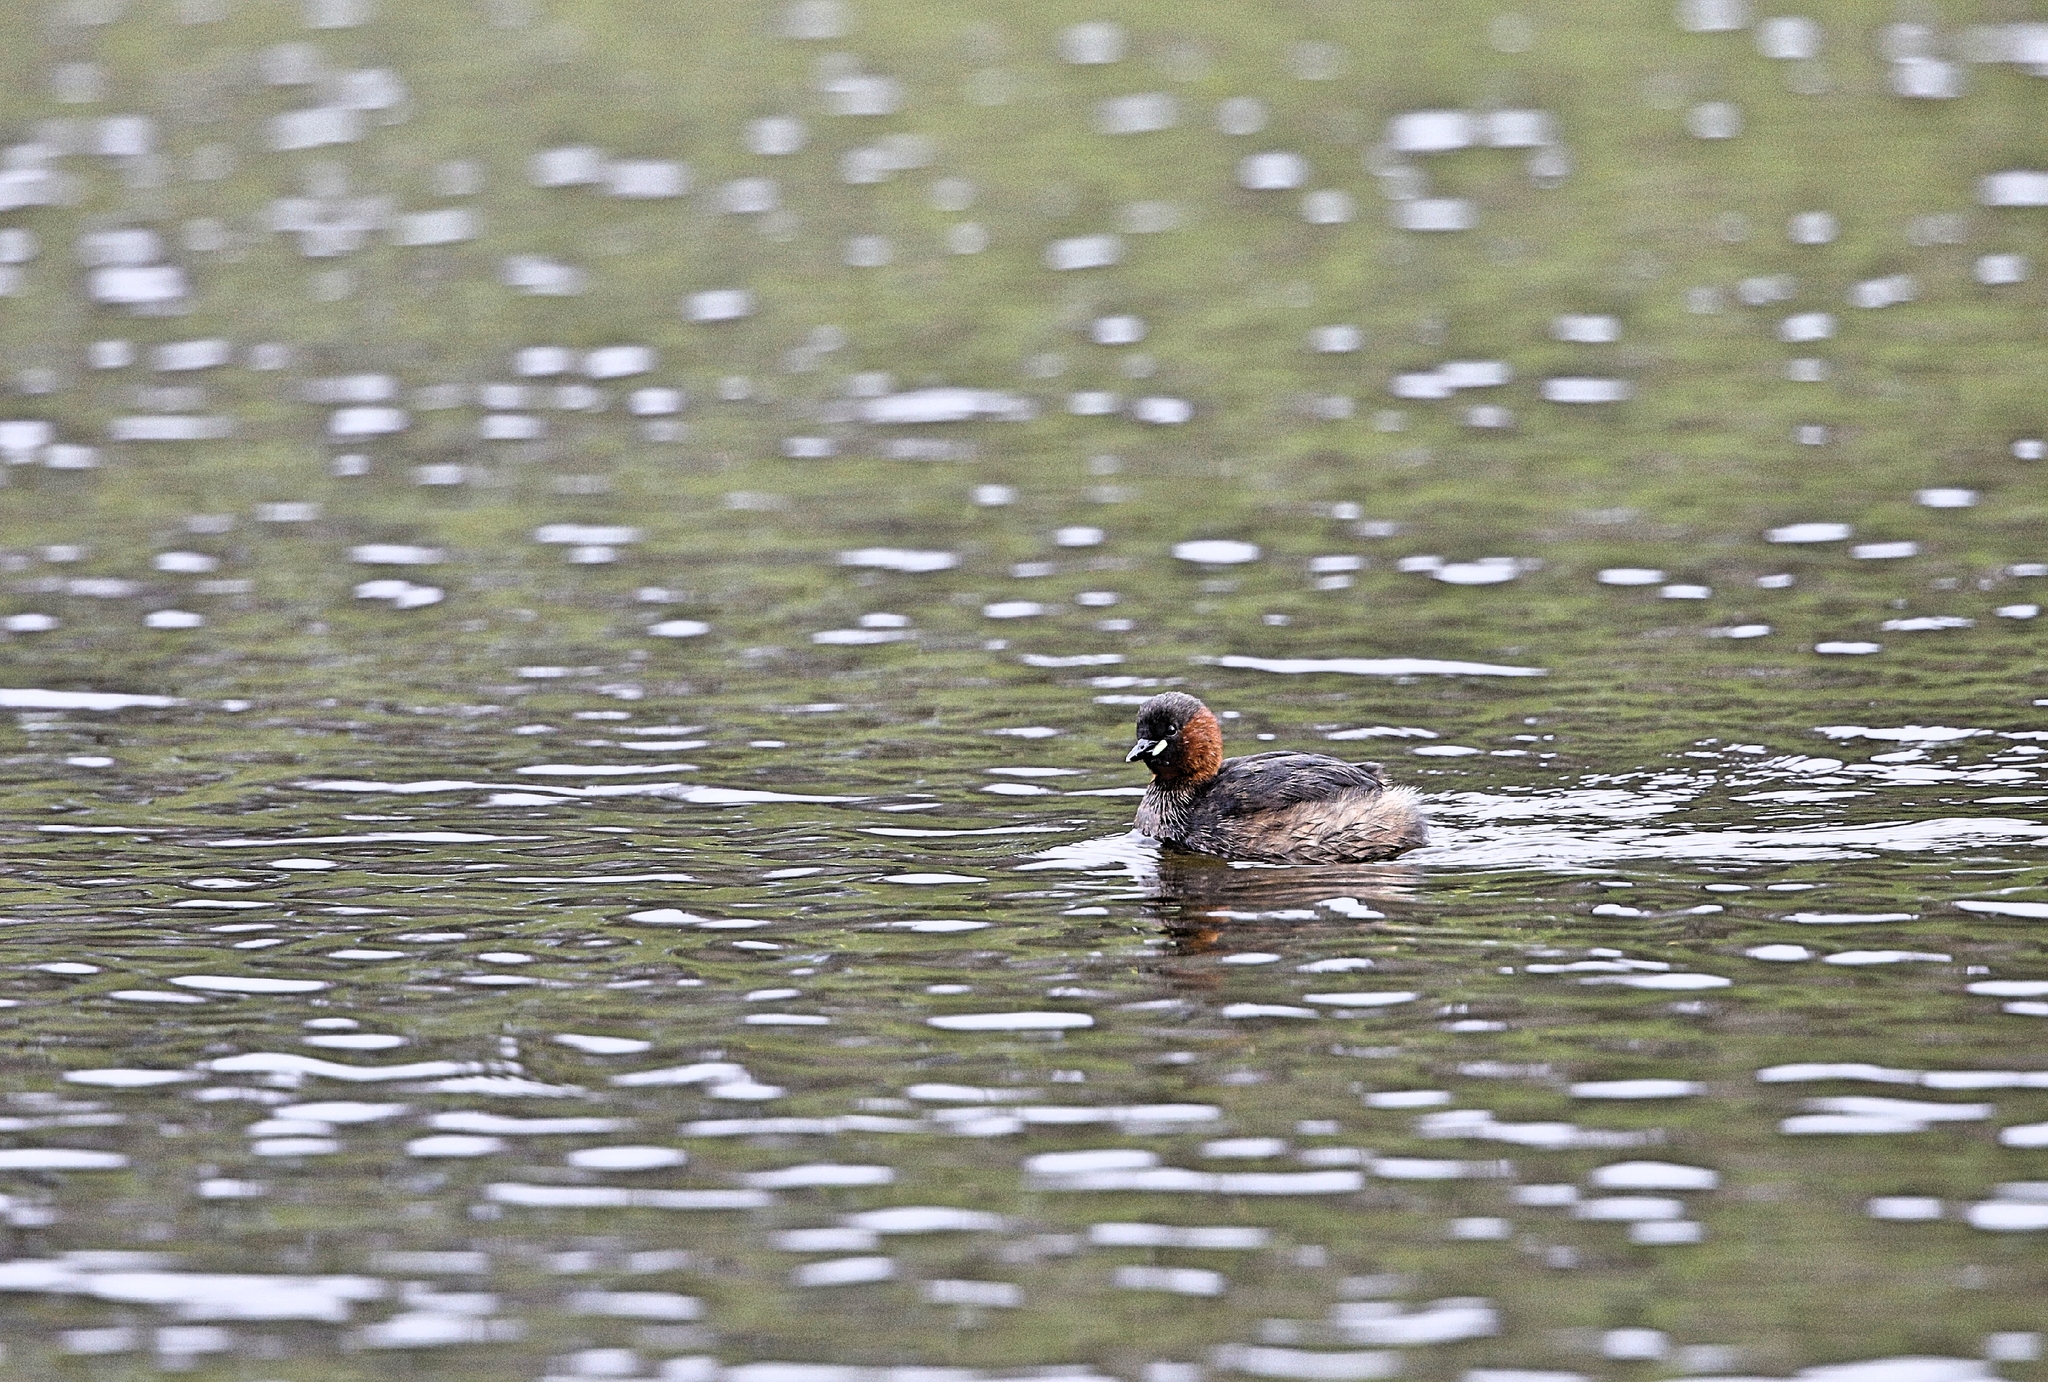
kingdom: Animalia
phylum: Chordata
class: Aves
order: Podicipediformes
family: Podicipedidae
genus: Tachybaptus
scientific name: Tachybaptus ruficollis
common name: Little grebe
